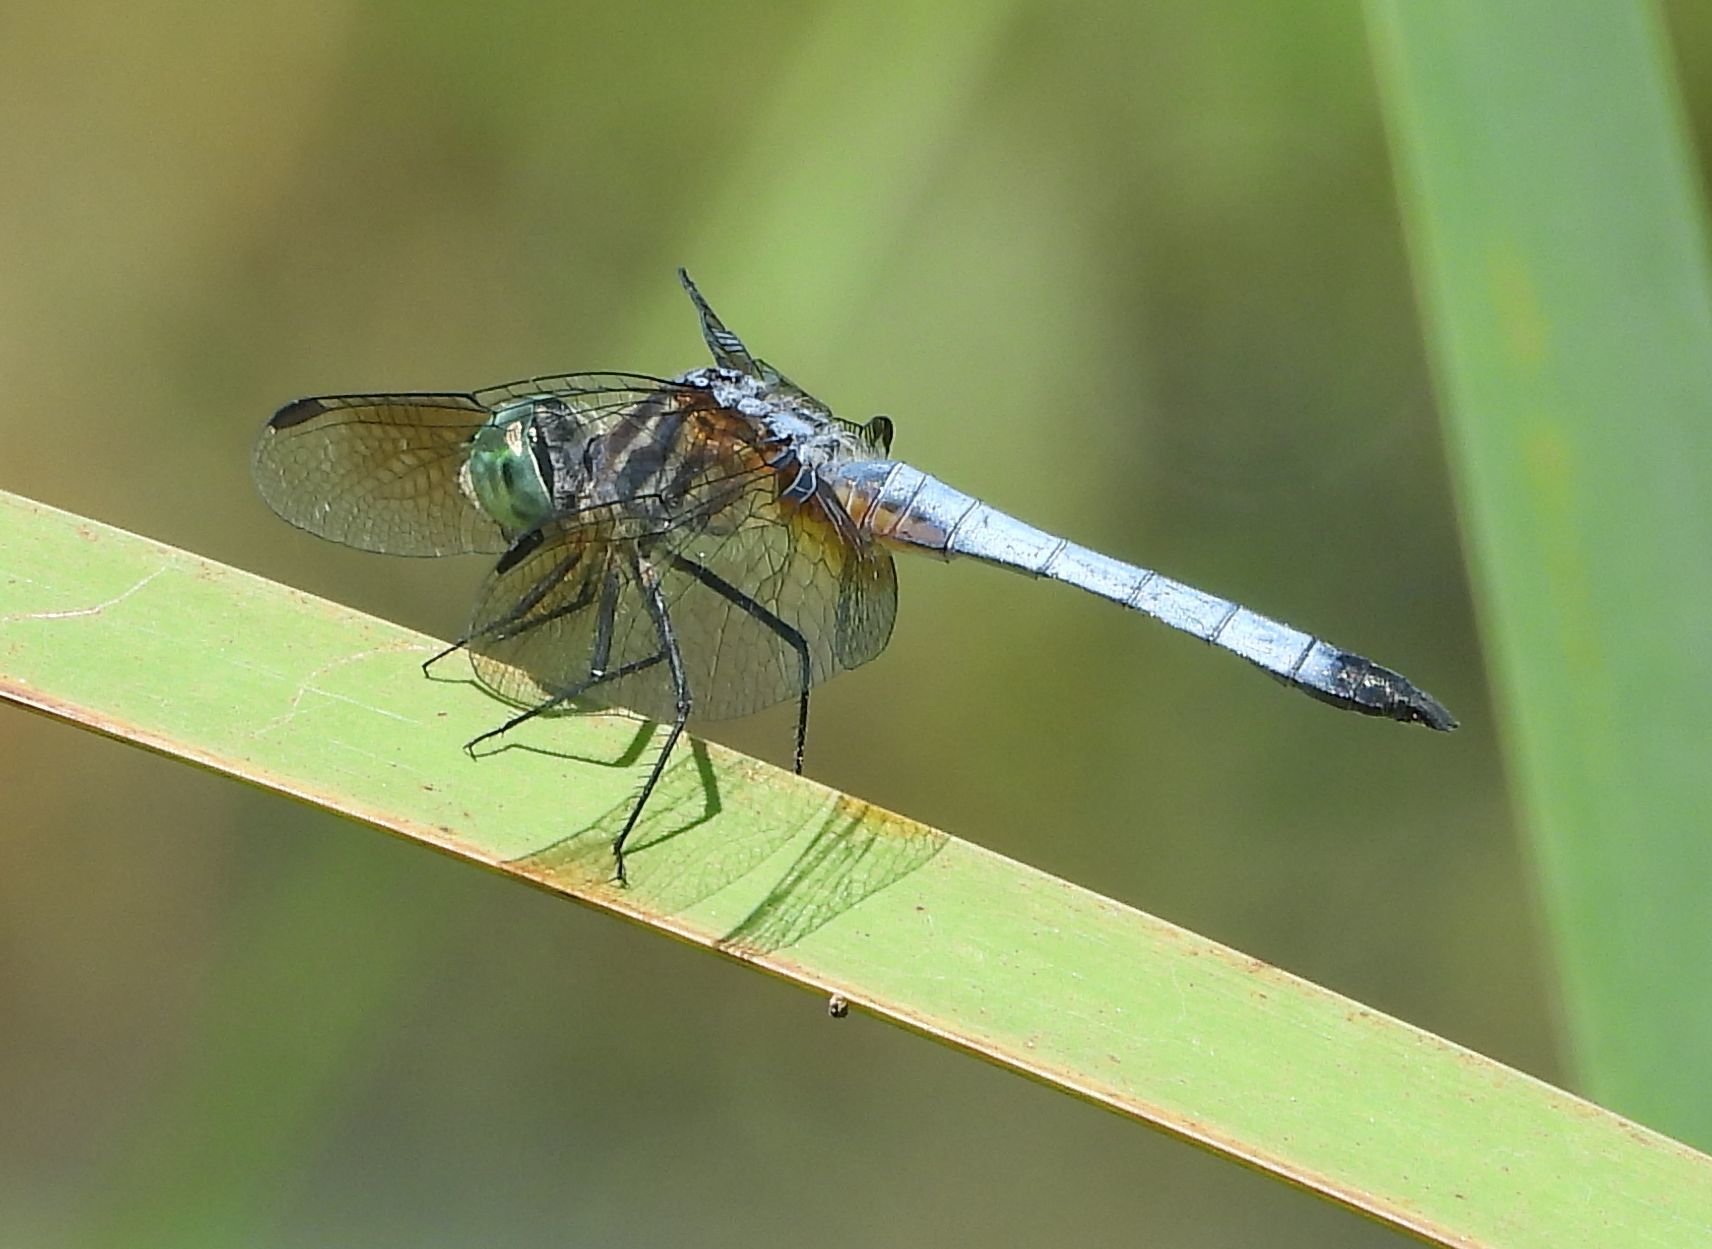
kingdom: Animalia
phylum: Arthropoda
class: Insecta
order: Odonata
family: Libellulidae
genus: Pachydiplax
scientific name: Pachydiplax longipennis
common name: Blue dasher
